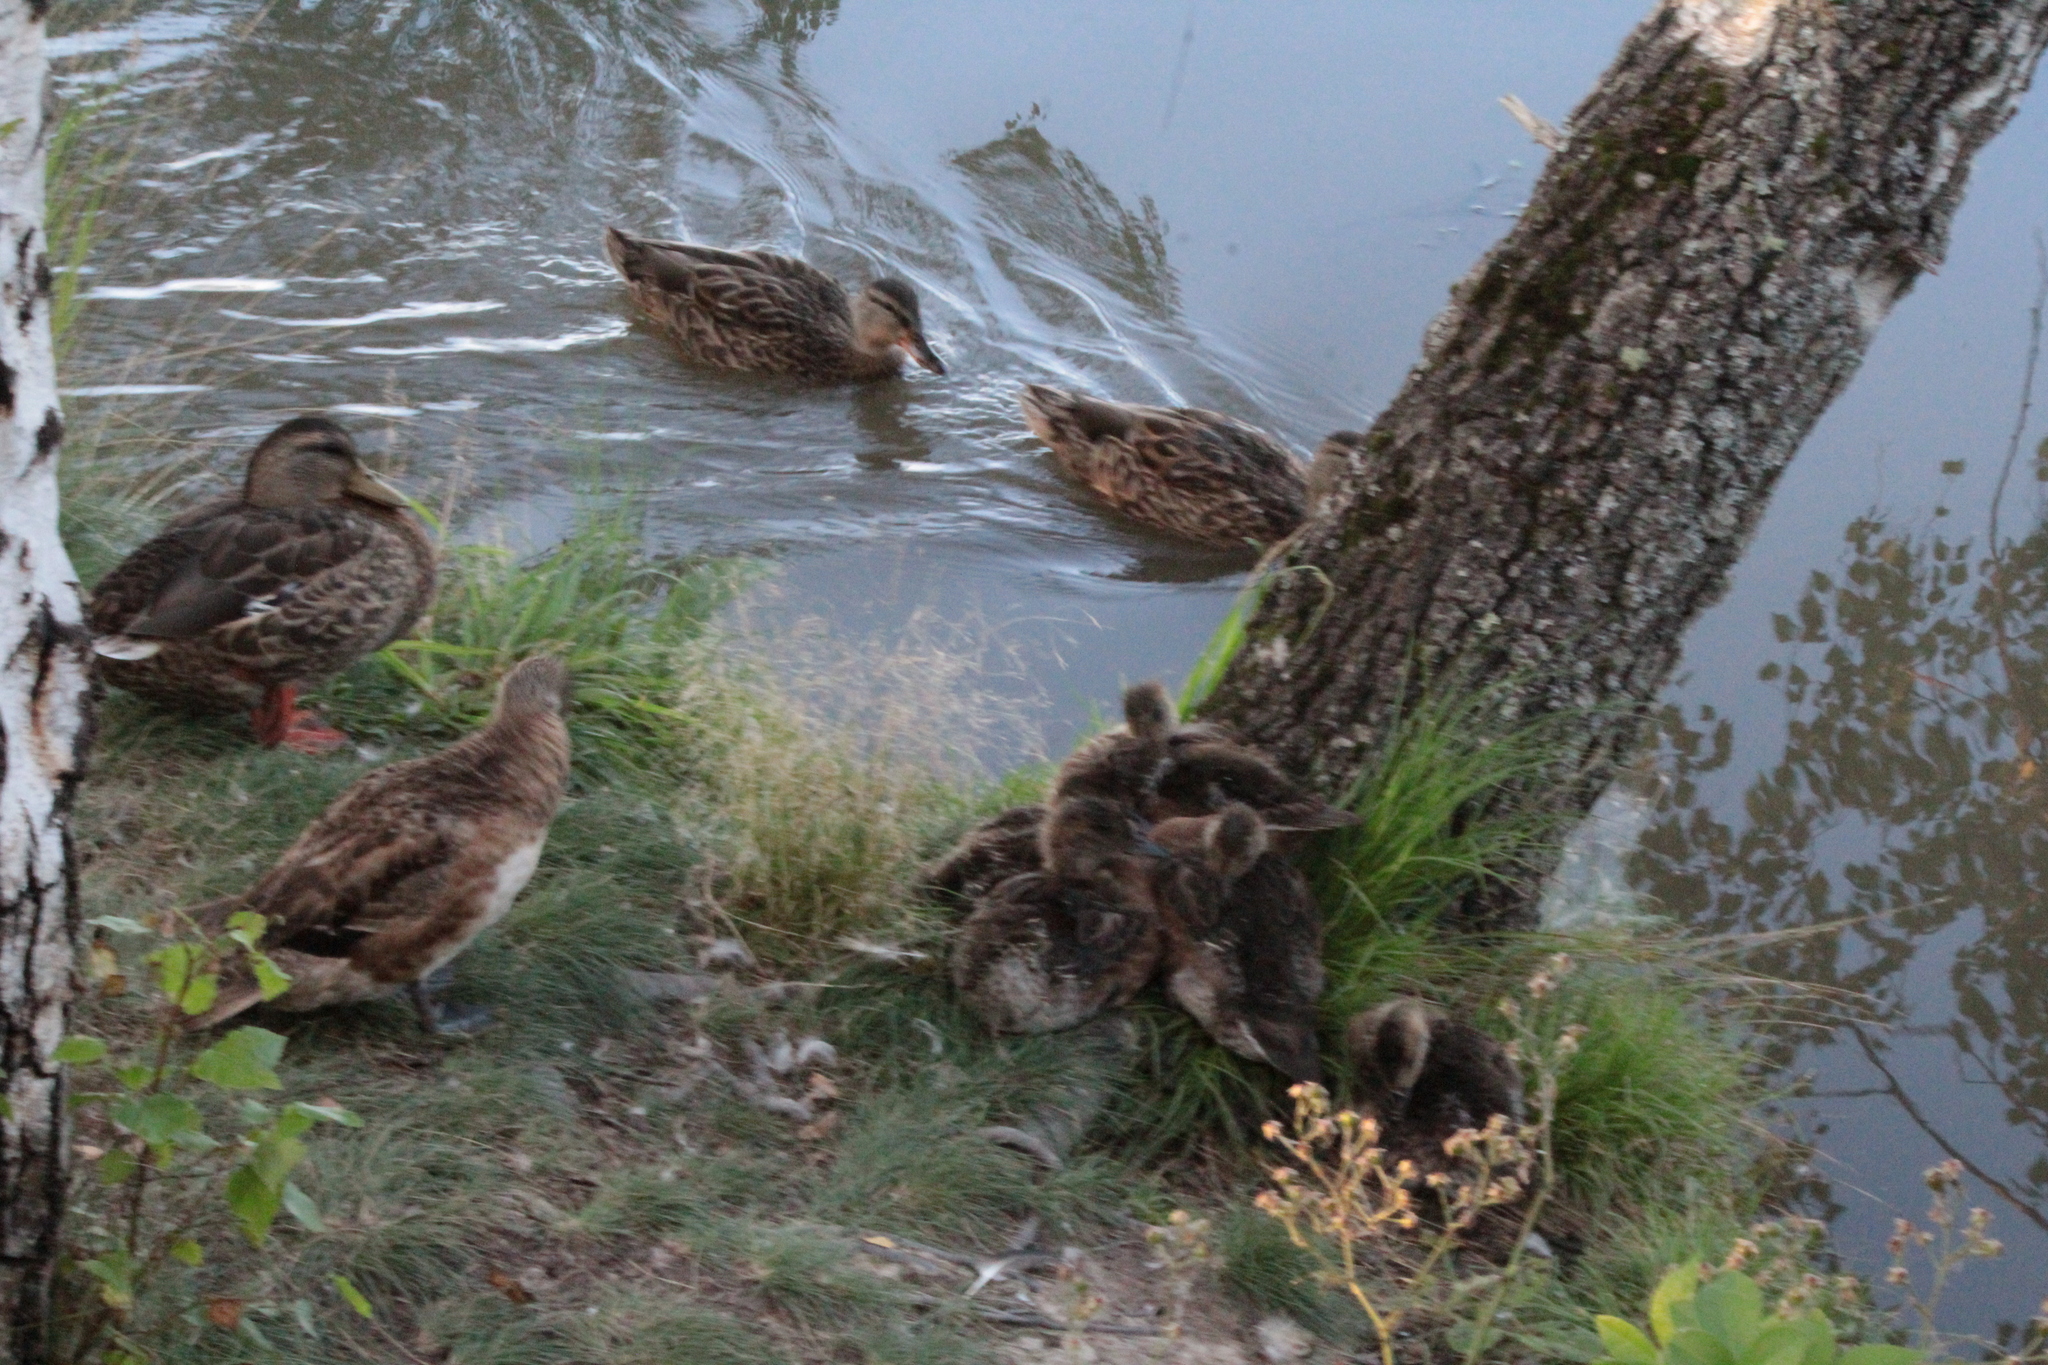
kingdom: Animalia
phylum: Chordata
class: Aves
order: Anseriformes
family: Anatidae
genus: Mareca
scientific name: Mareca americana
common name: American wigeon
